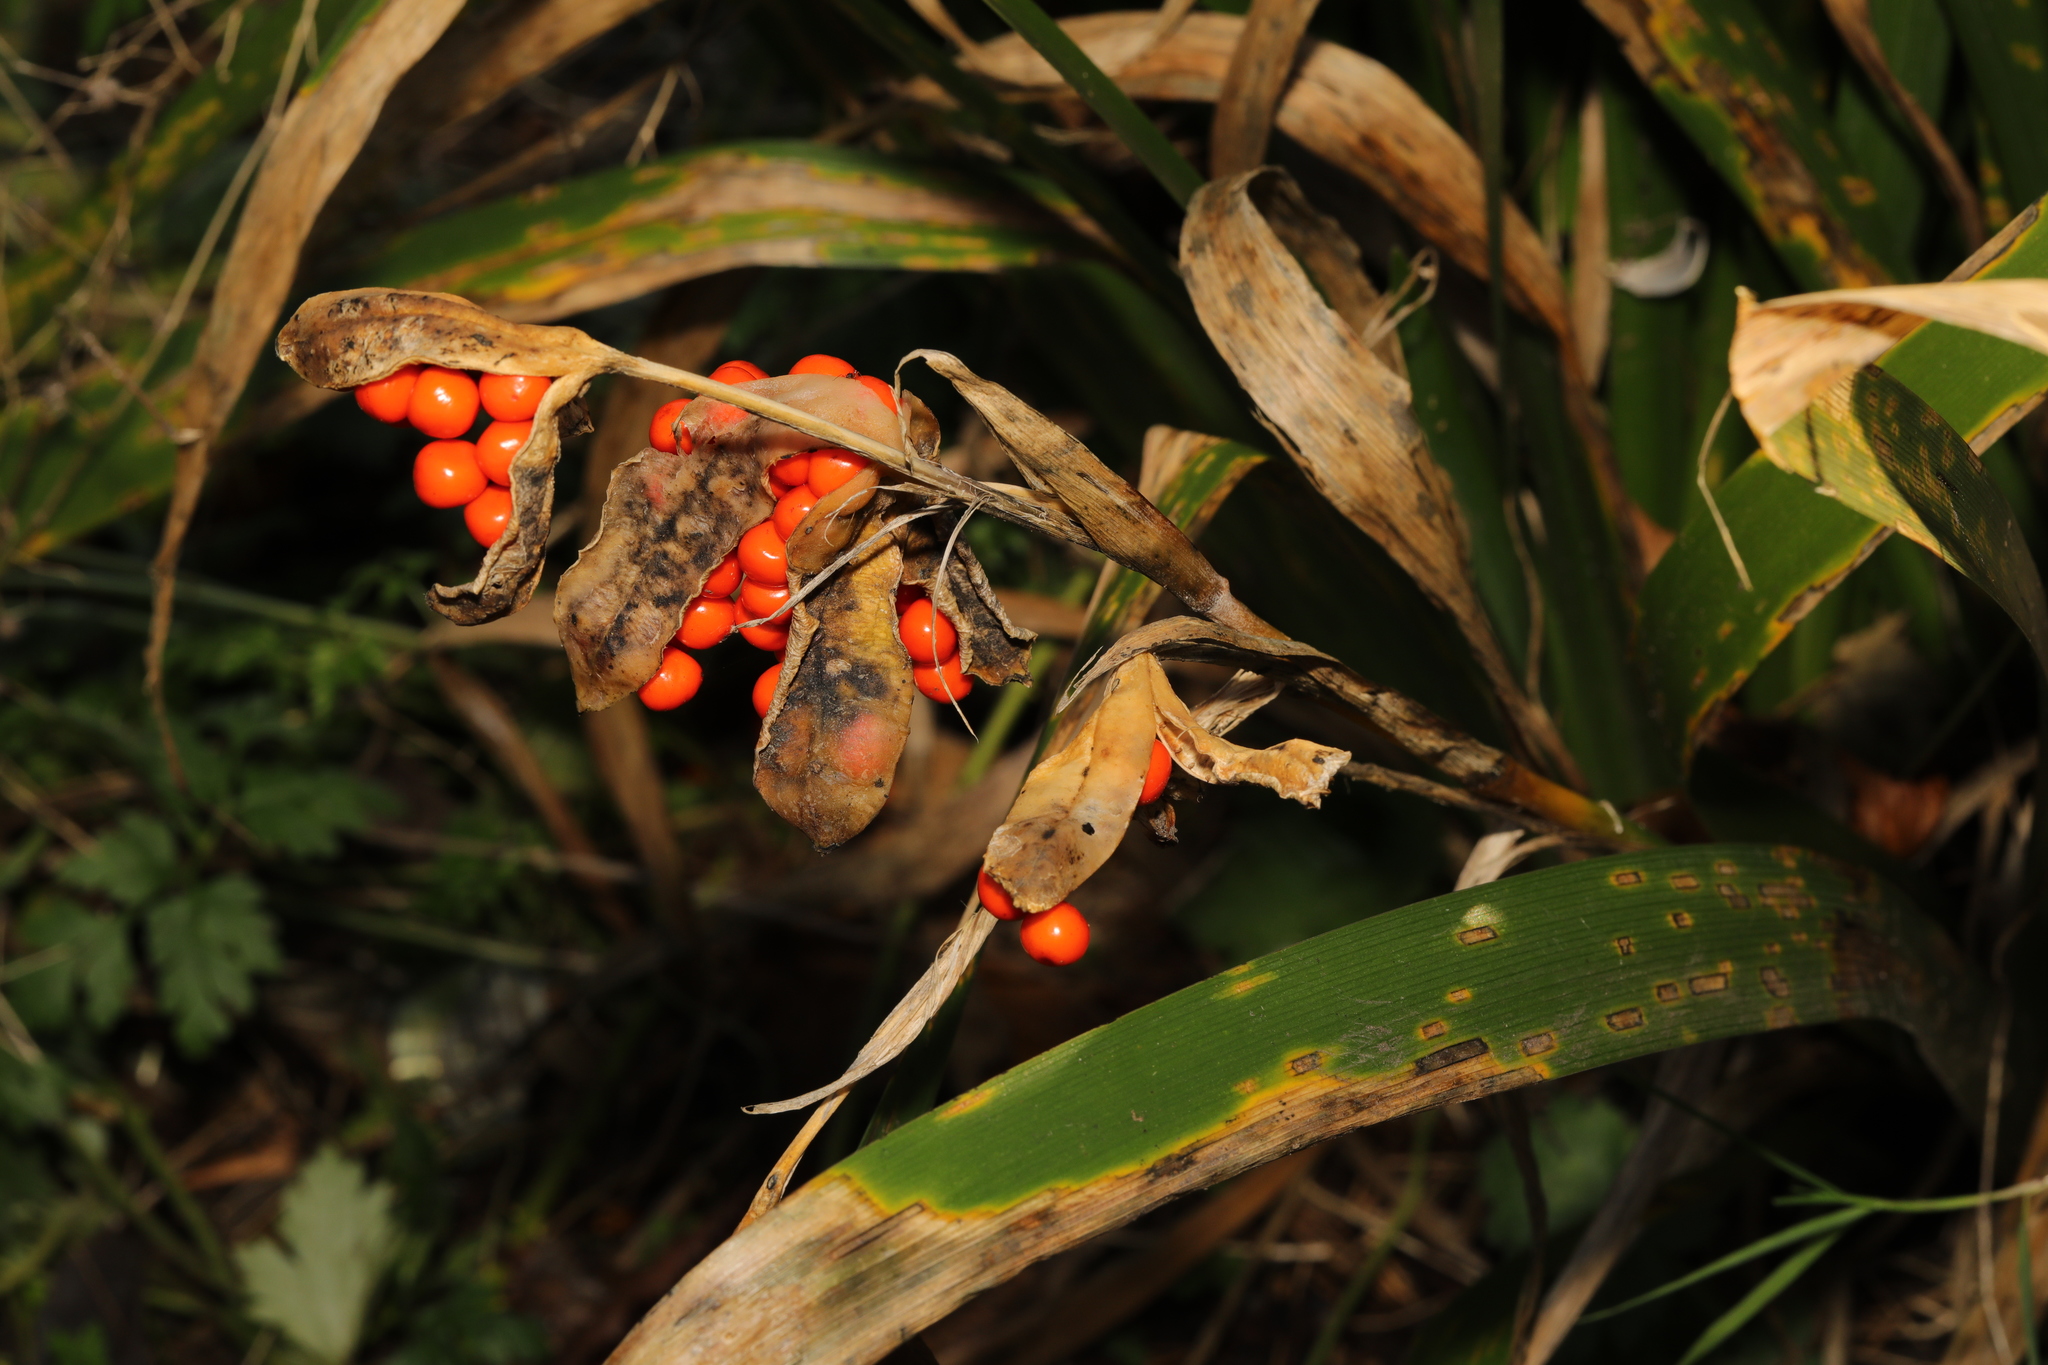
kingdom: Plantae
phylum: Tracheophyta
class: Liliopsida
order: Asparagales
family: Iridaceae
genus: Iris
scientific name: Iris foetidissima
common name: Stinking iris
